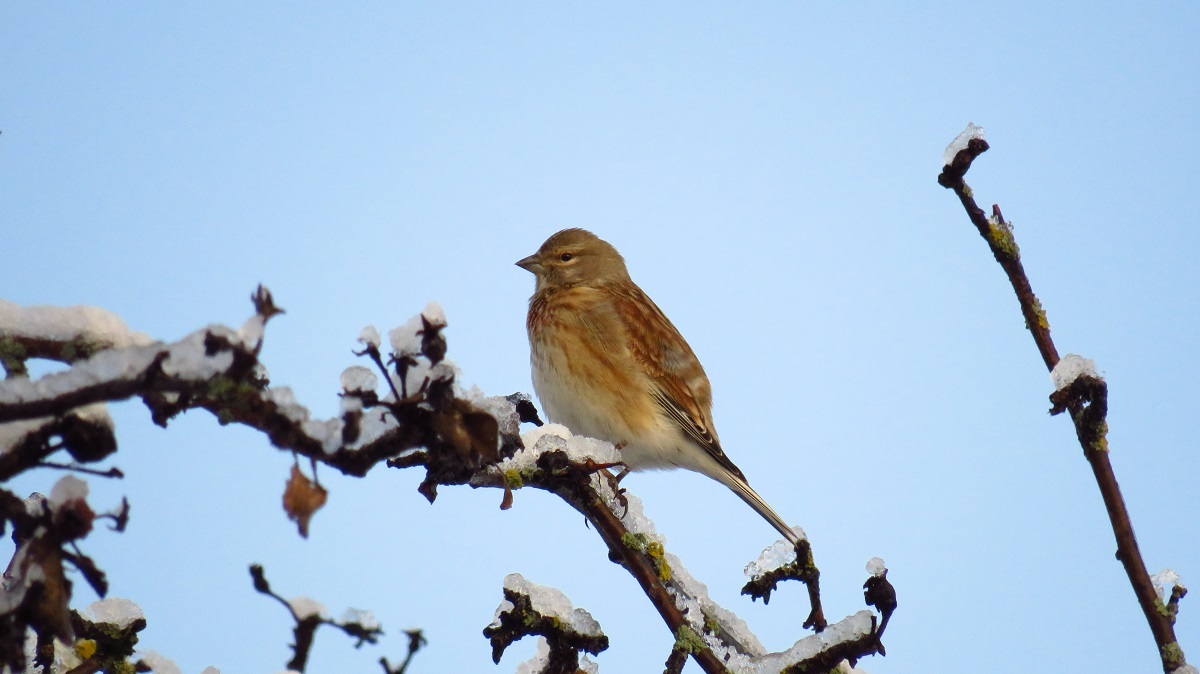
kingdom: Animalia
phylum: Chordata
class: Aves
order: Passeriformes
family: Fringillidae
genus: Linaria
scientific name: Linaria cannabina
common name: Common linnet
